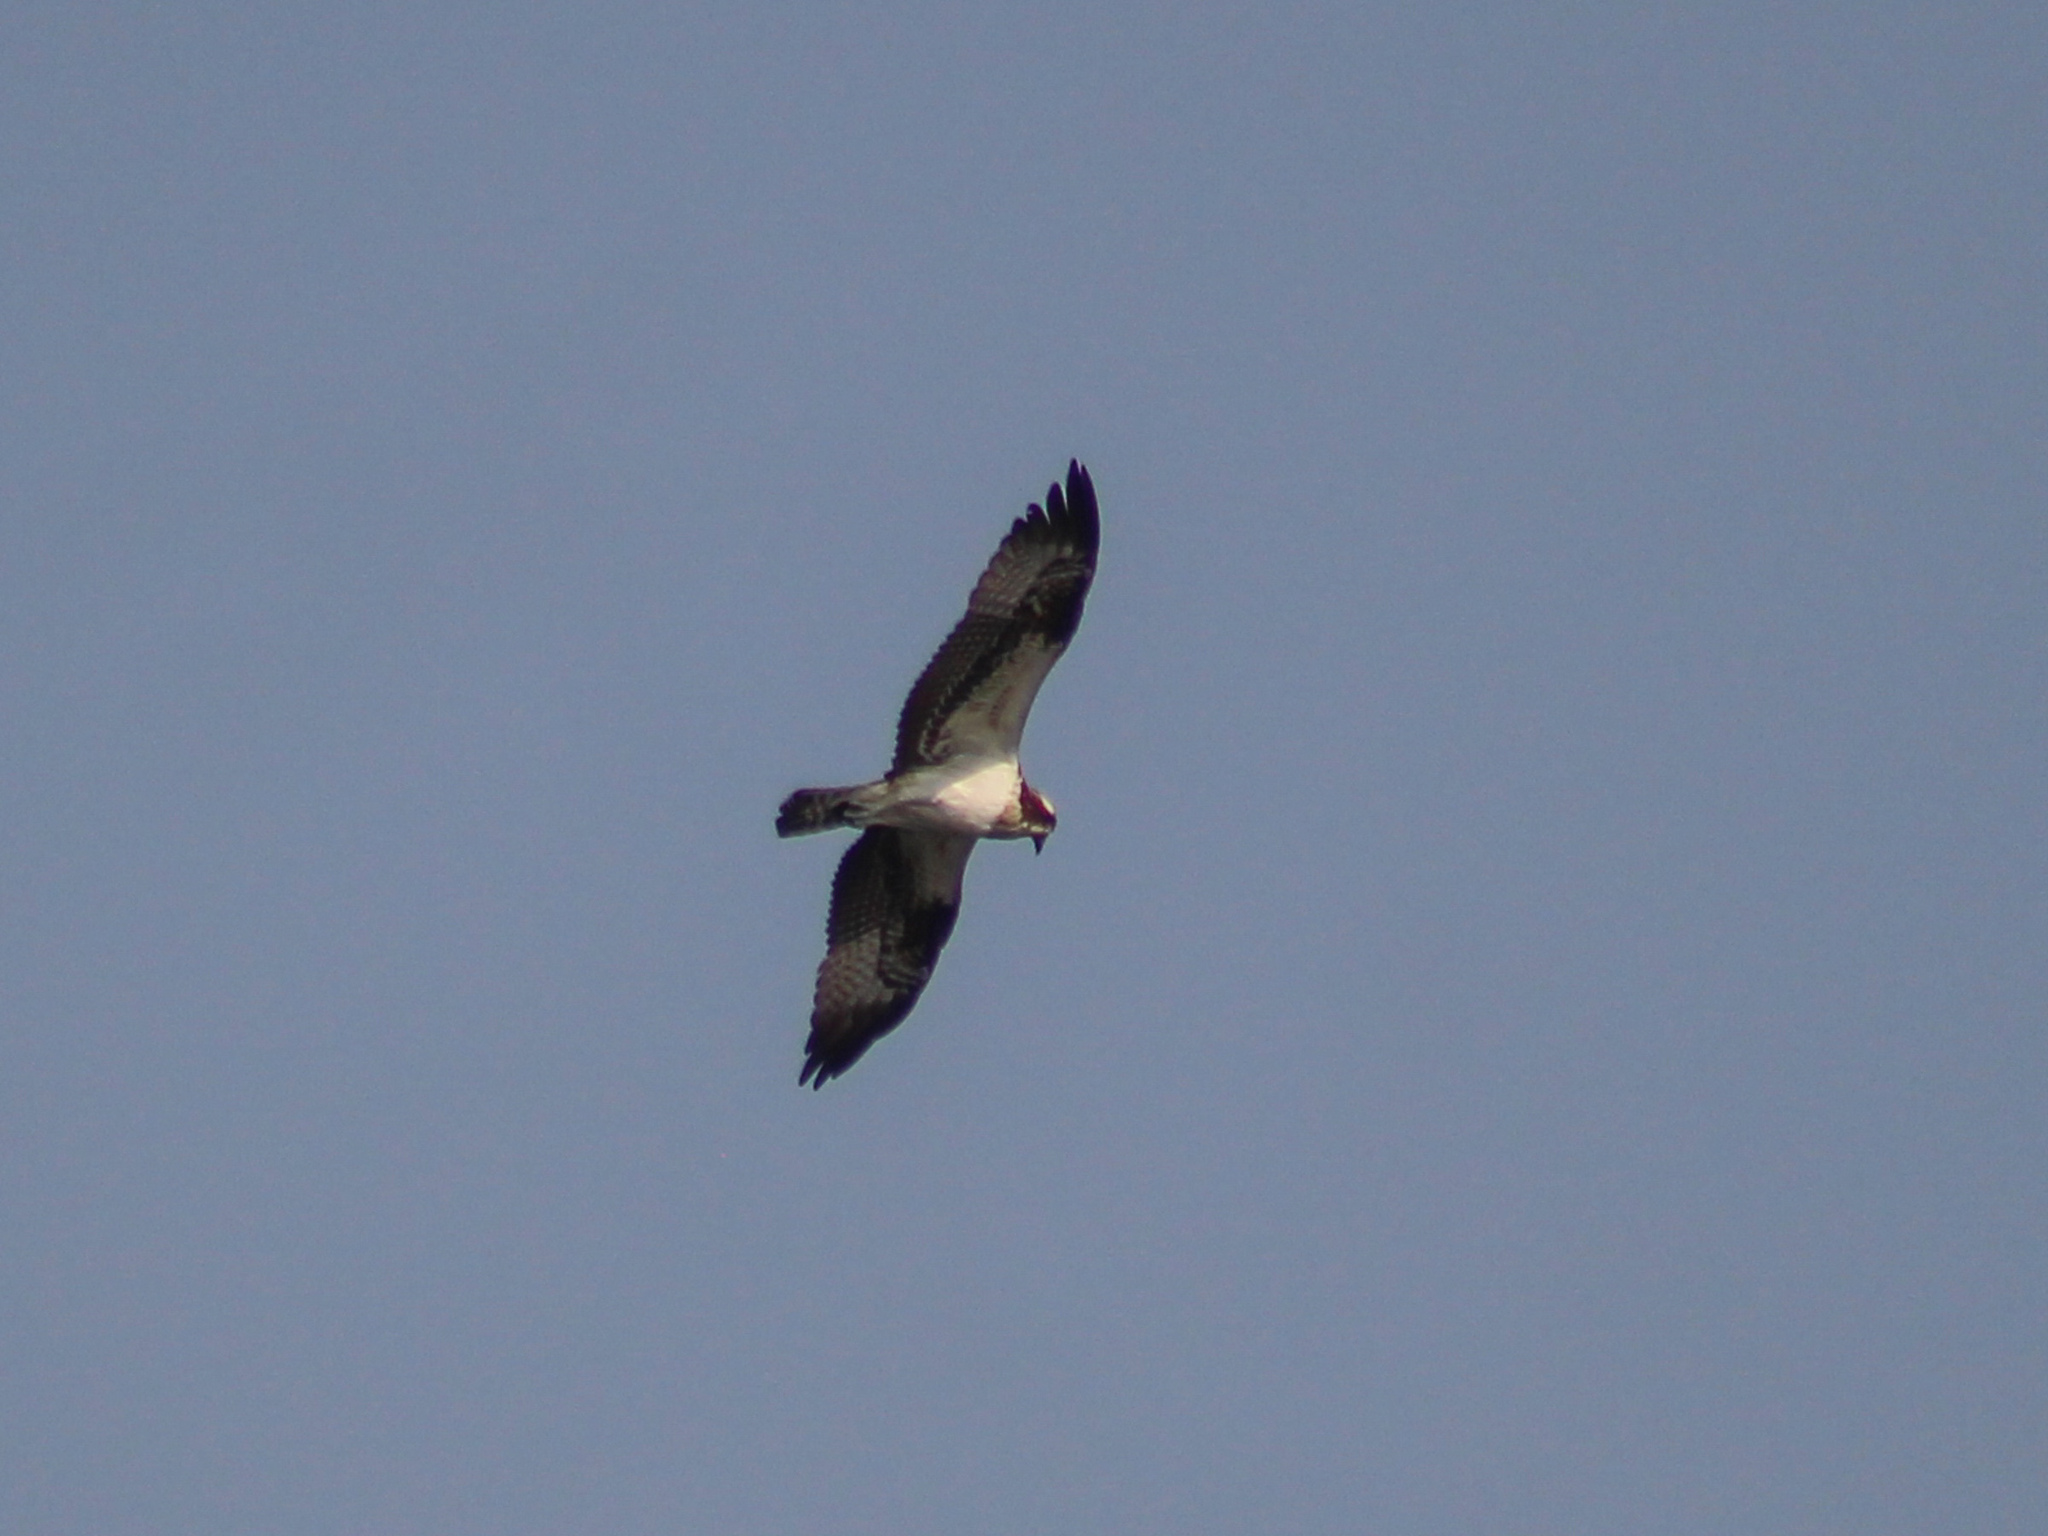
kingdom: Animalia
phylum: Chordata
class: Aves
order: Accipitriformes
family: Pandionidae
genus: Pandion
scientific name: Pandion haliaetus
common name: Osprey
